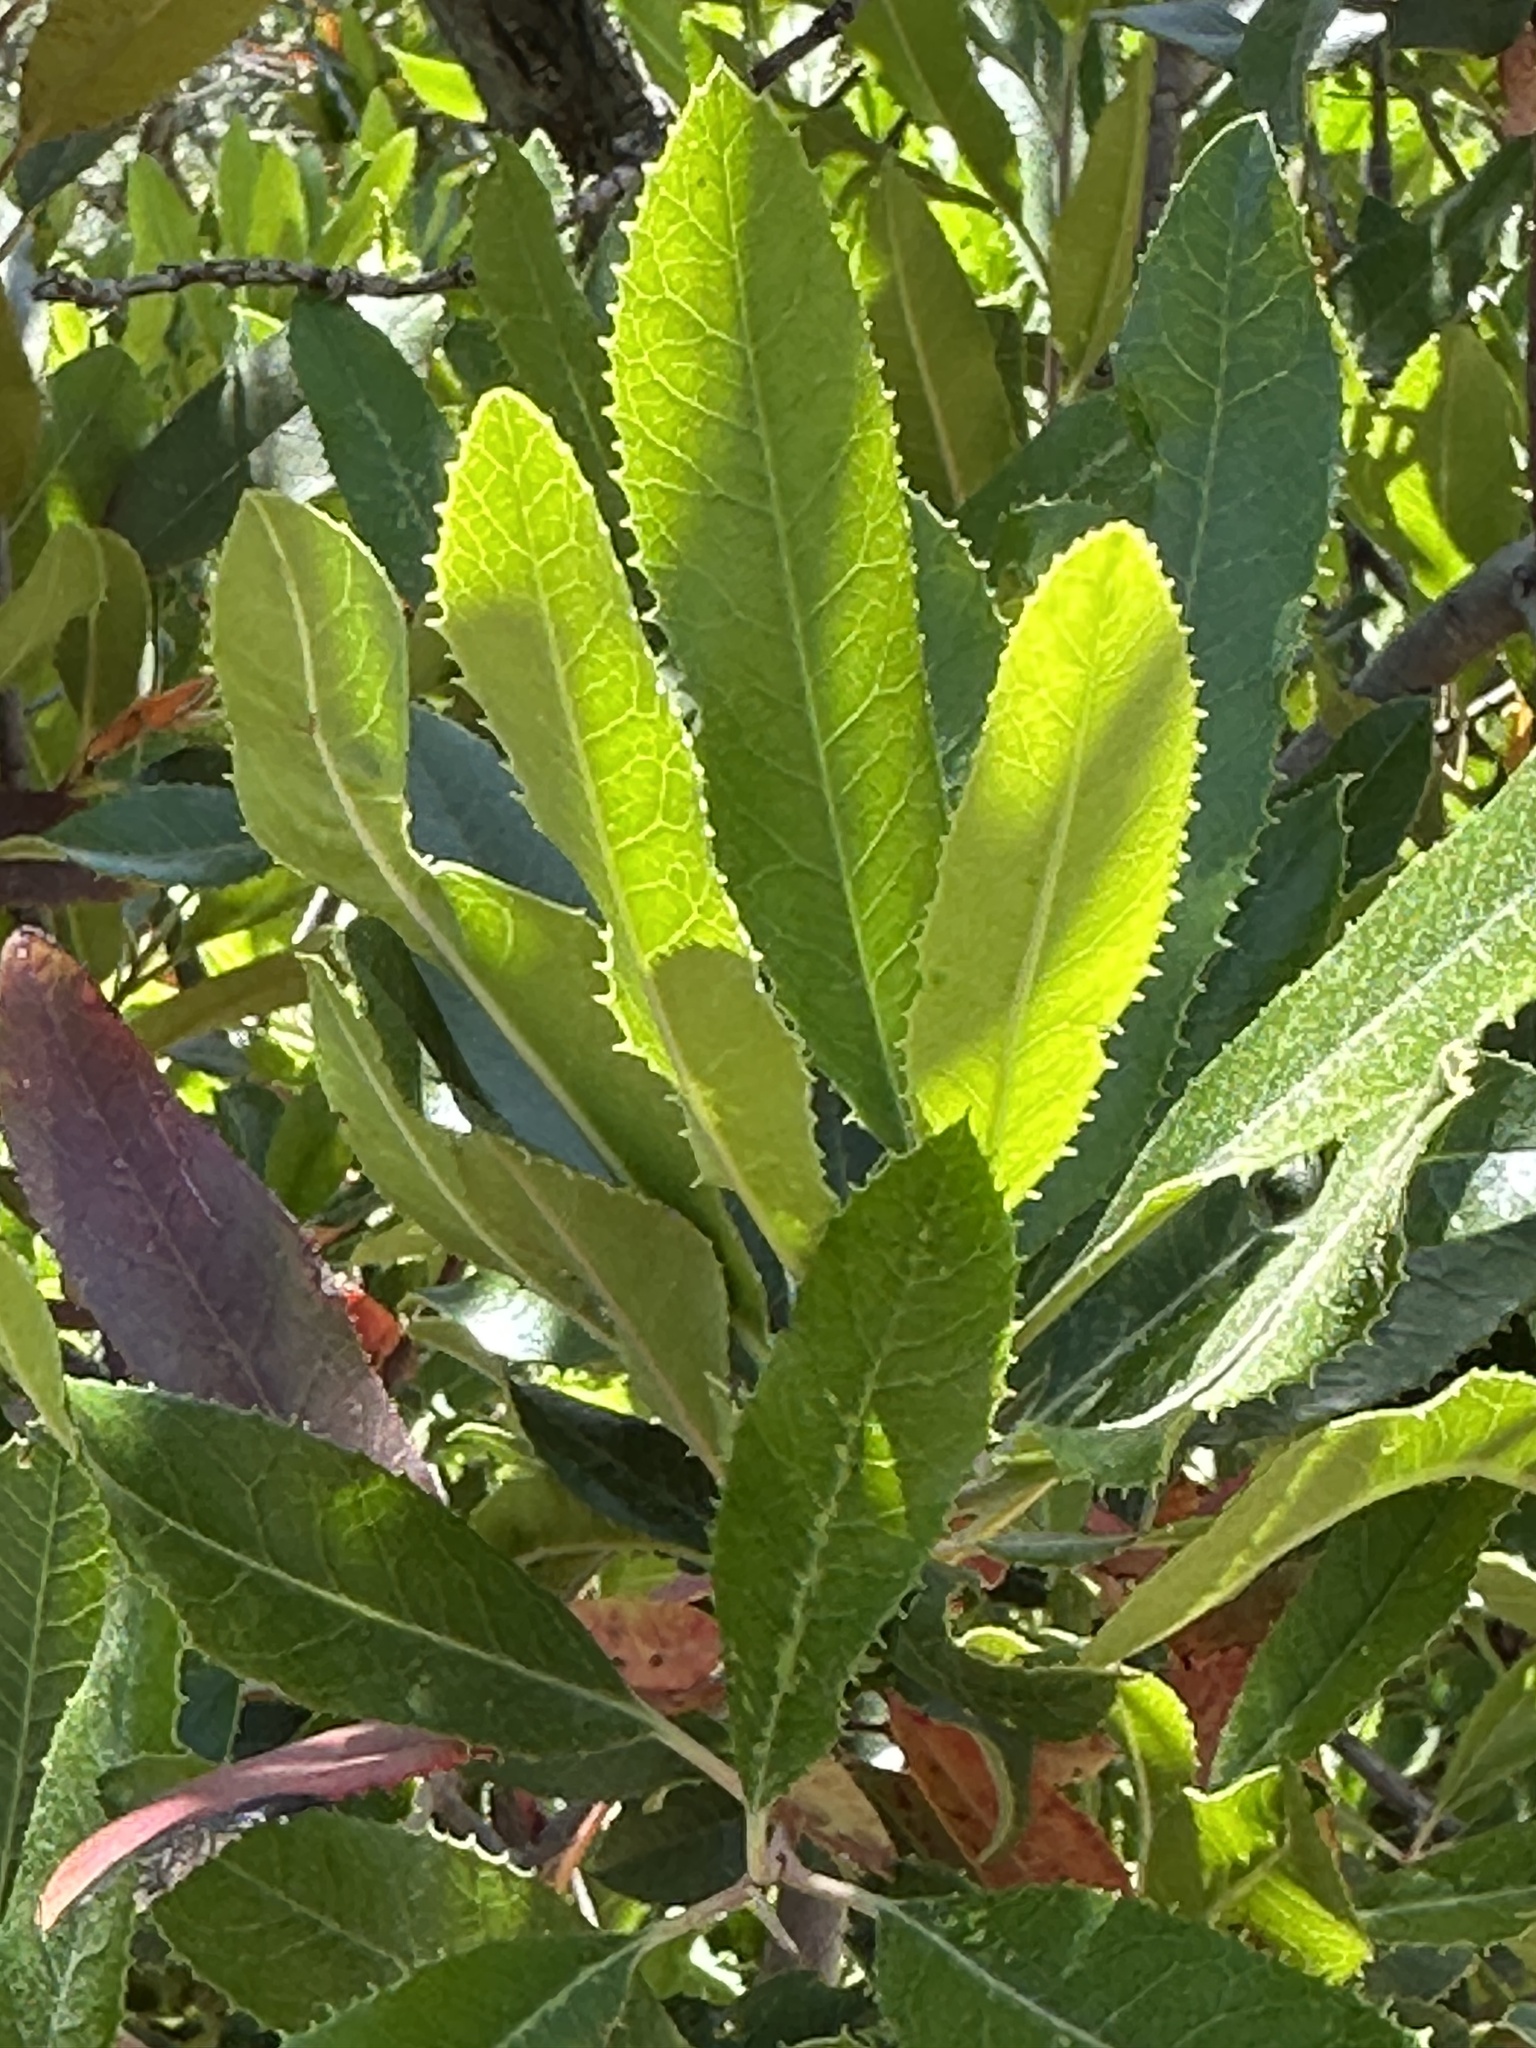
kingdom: Plantae
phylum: Tracheophyta
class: Magnoliopsida
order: Rosales
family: Rosaceae
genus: Heteromeles
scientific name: Heteromeles arbutifolia
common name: California-holly
